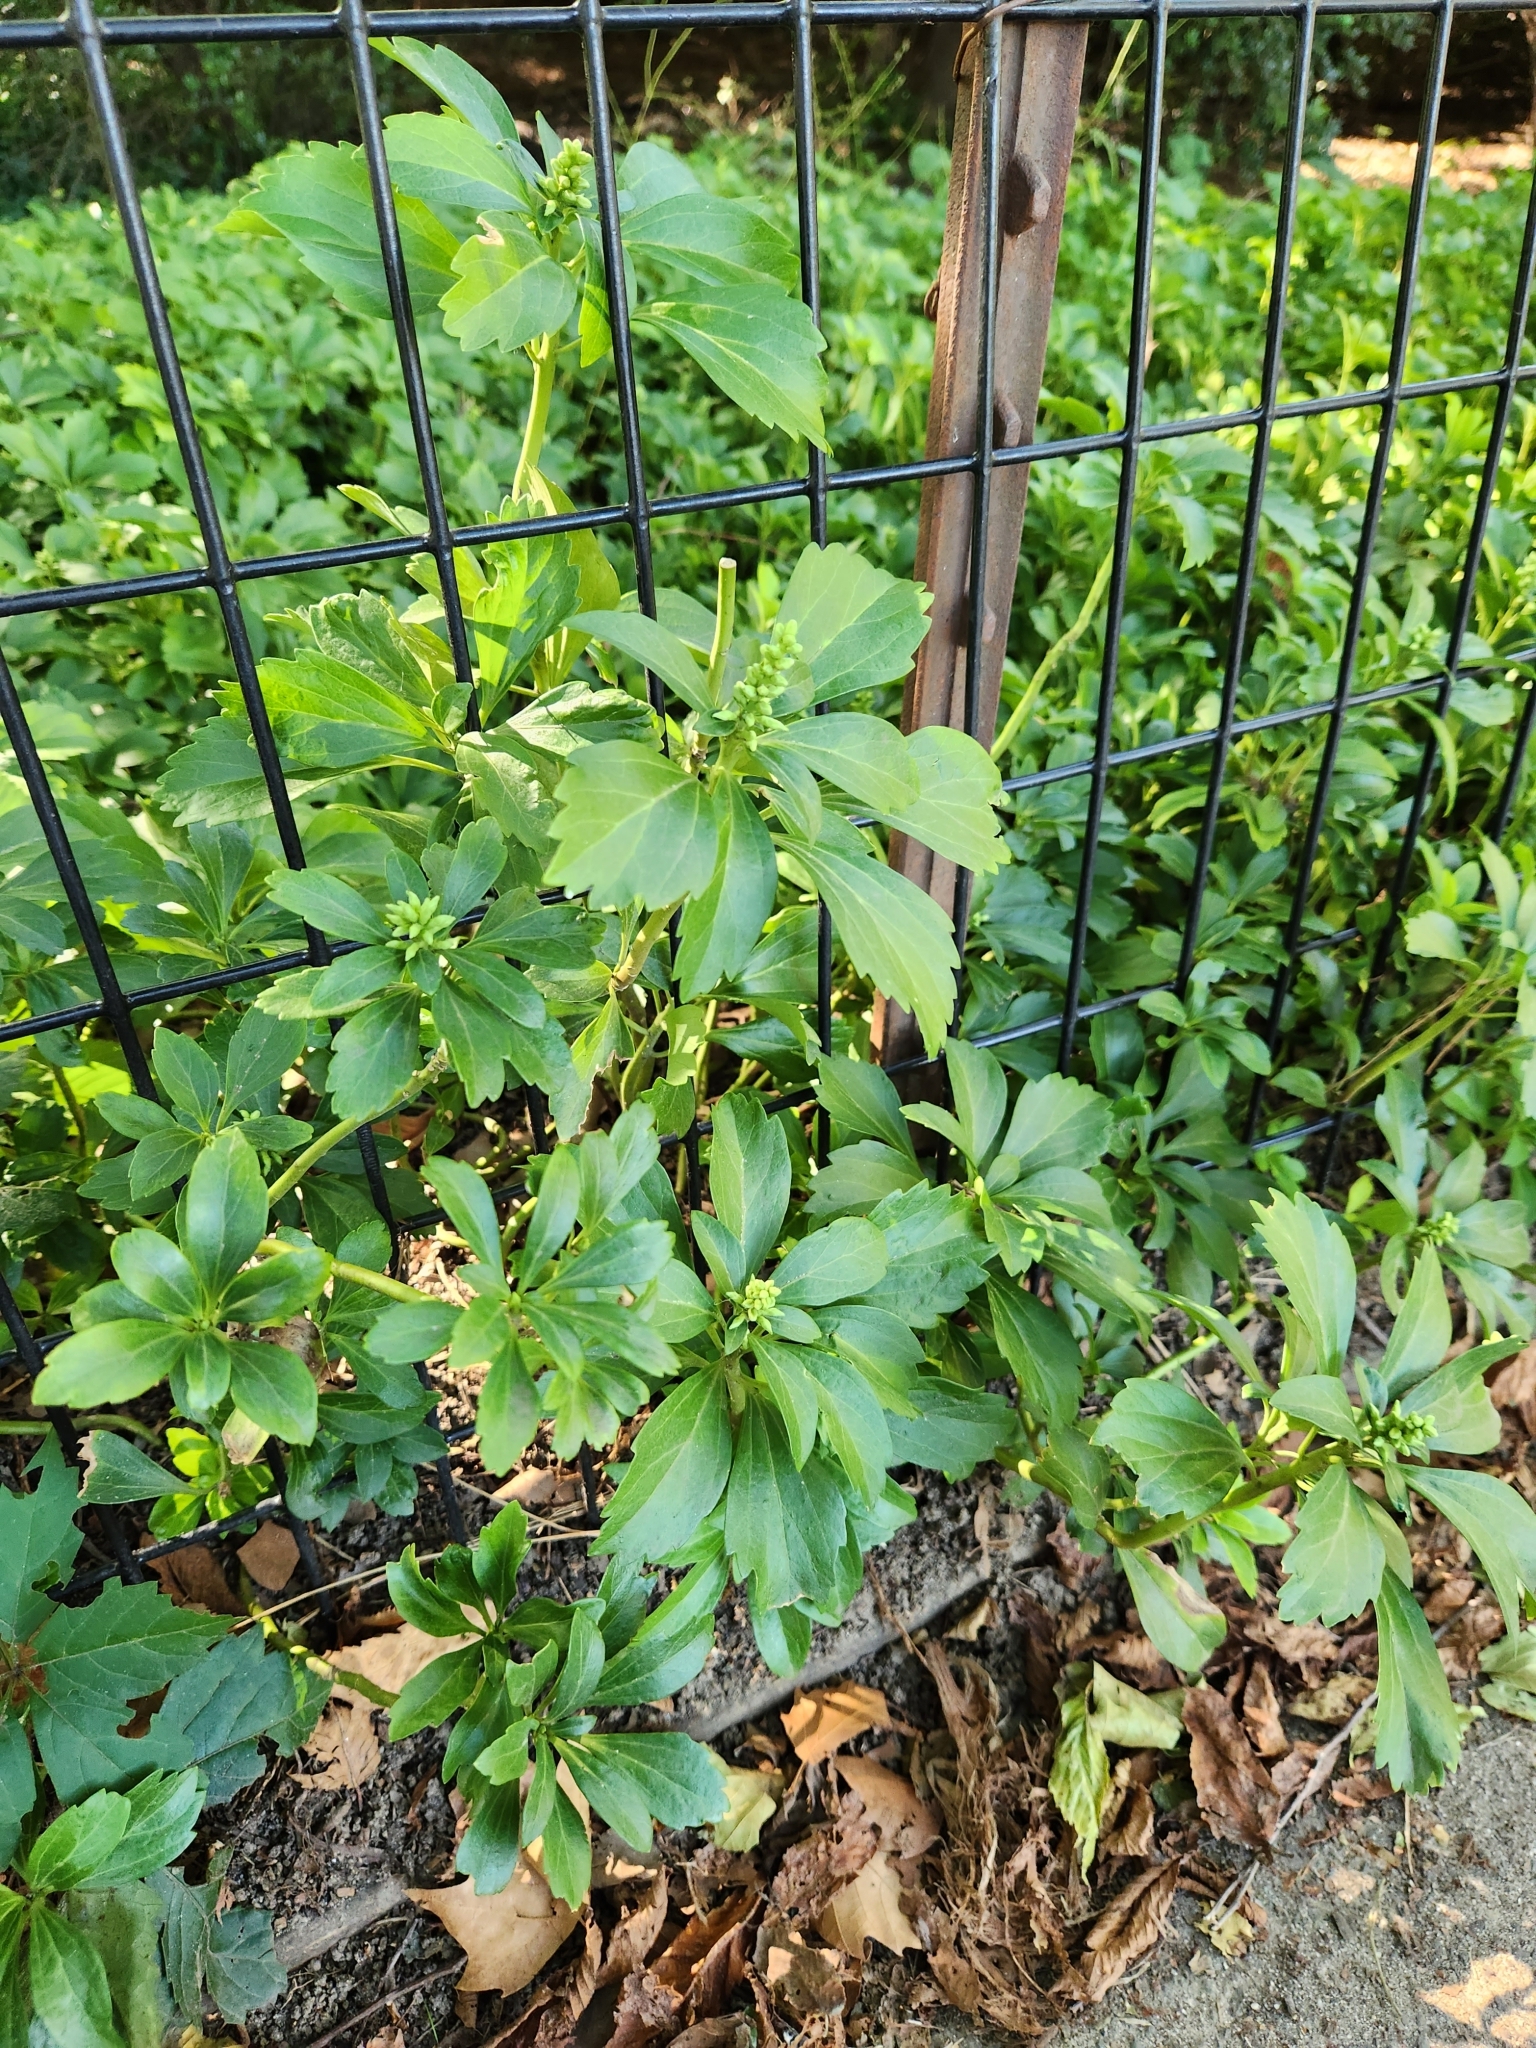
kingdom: Plantae
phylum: Tracheophyta
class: Magnoliopsida
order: Buxales
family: Buxaceae
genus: Pachysandra
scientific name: Pachysandra terminalis
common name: Japanese pachysandra
